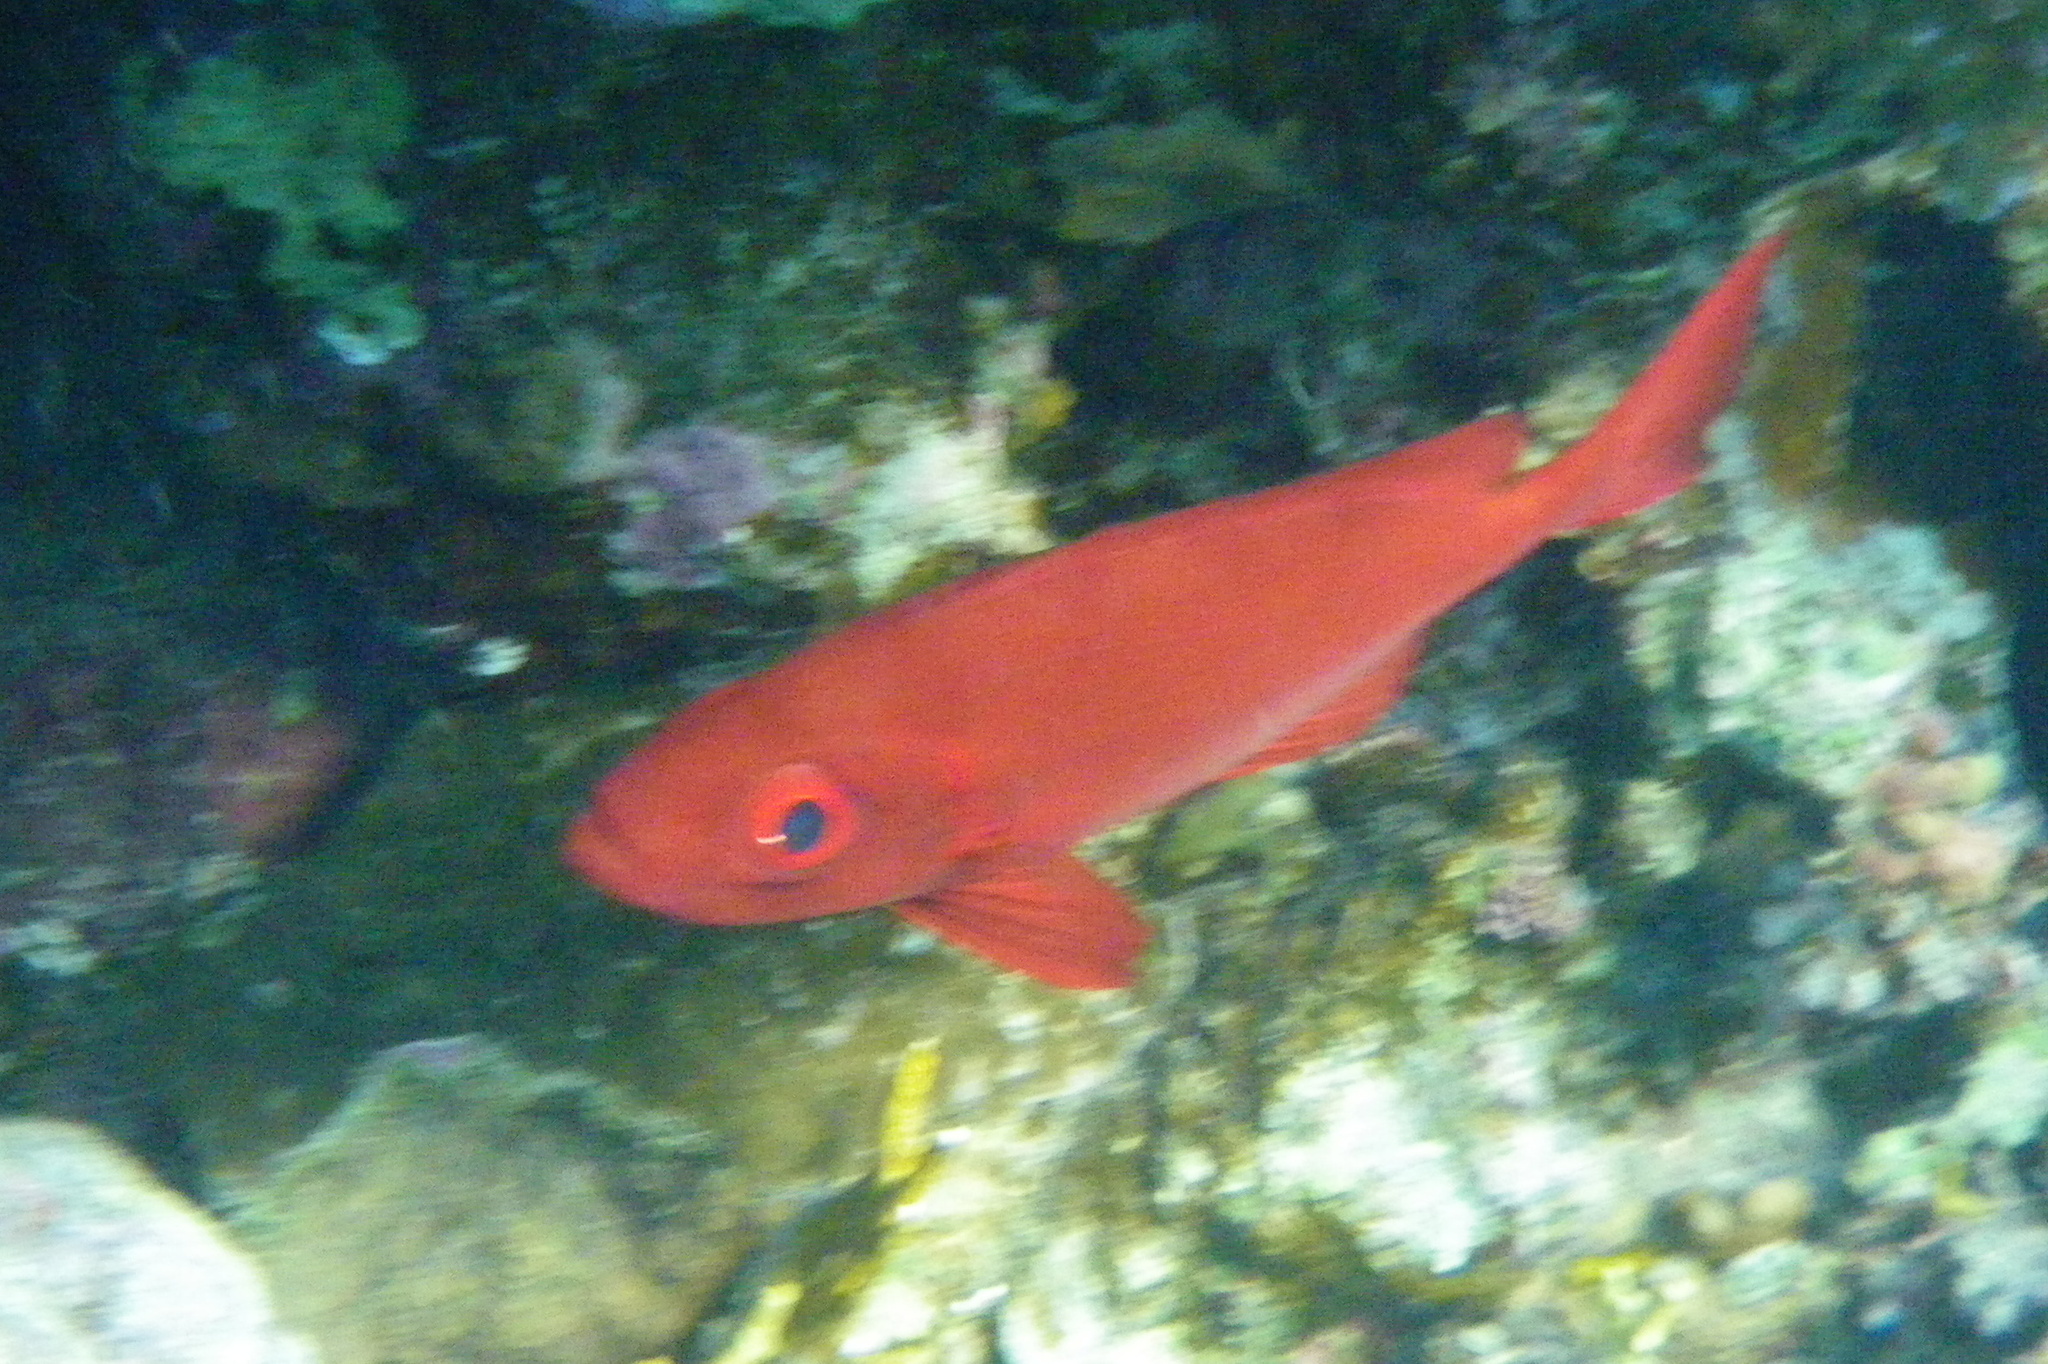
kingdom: Animalia
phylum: Chordata
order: Perciformes
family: Priacanthidae
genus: Priacanthus
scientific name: Priacanthus hamrur
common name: Moontail bullseye
